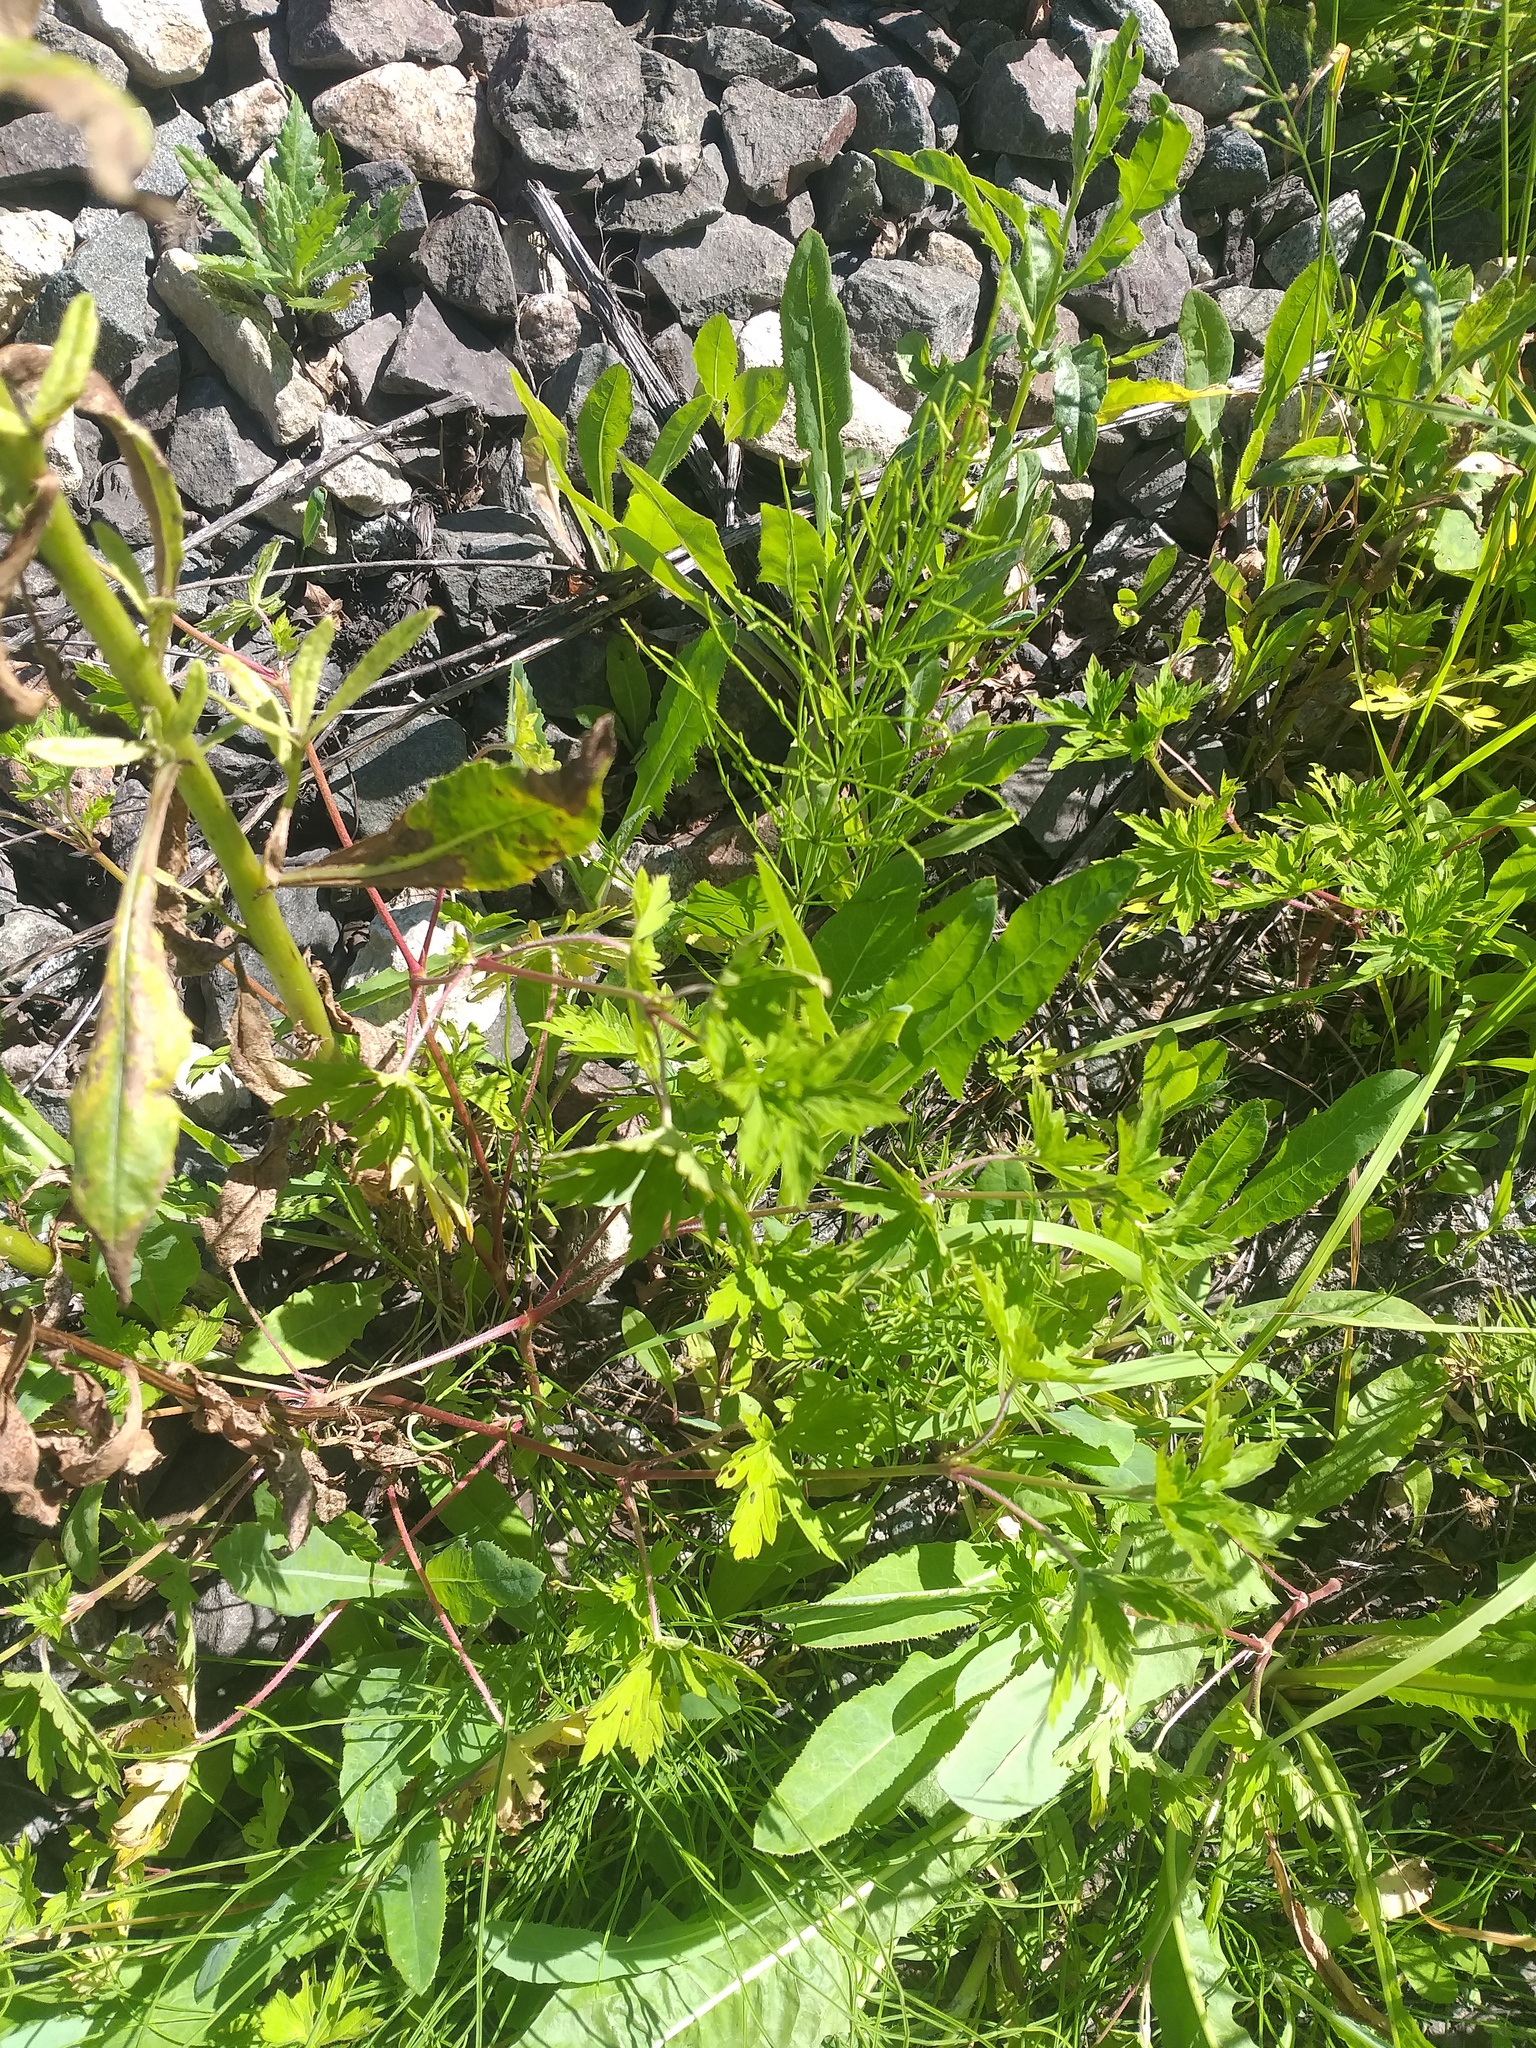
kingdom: Plantae
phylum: Tracheophyta
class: Magnoliopsida
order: Geraniales
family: Geraniaceae
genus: Geranium
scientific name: Geranium sibiricum
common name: Siberian crane's-bill
